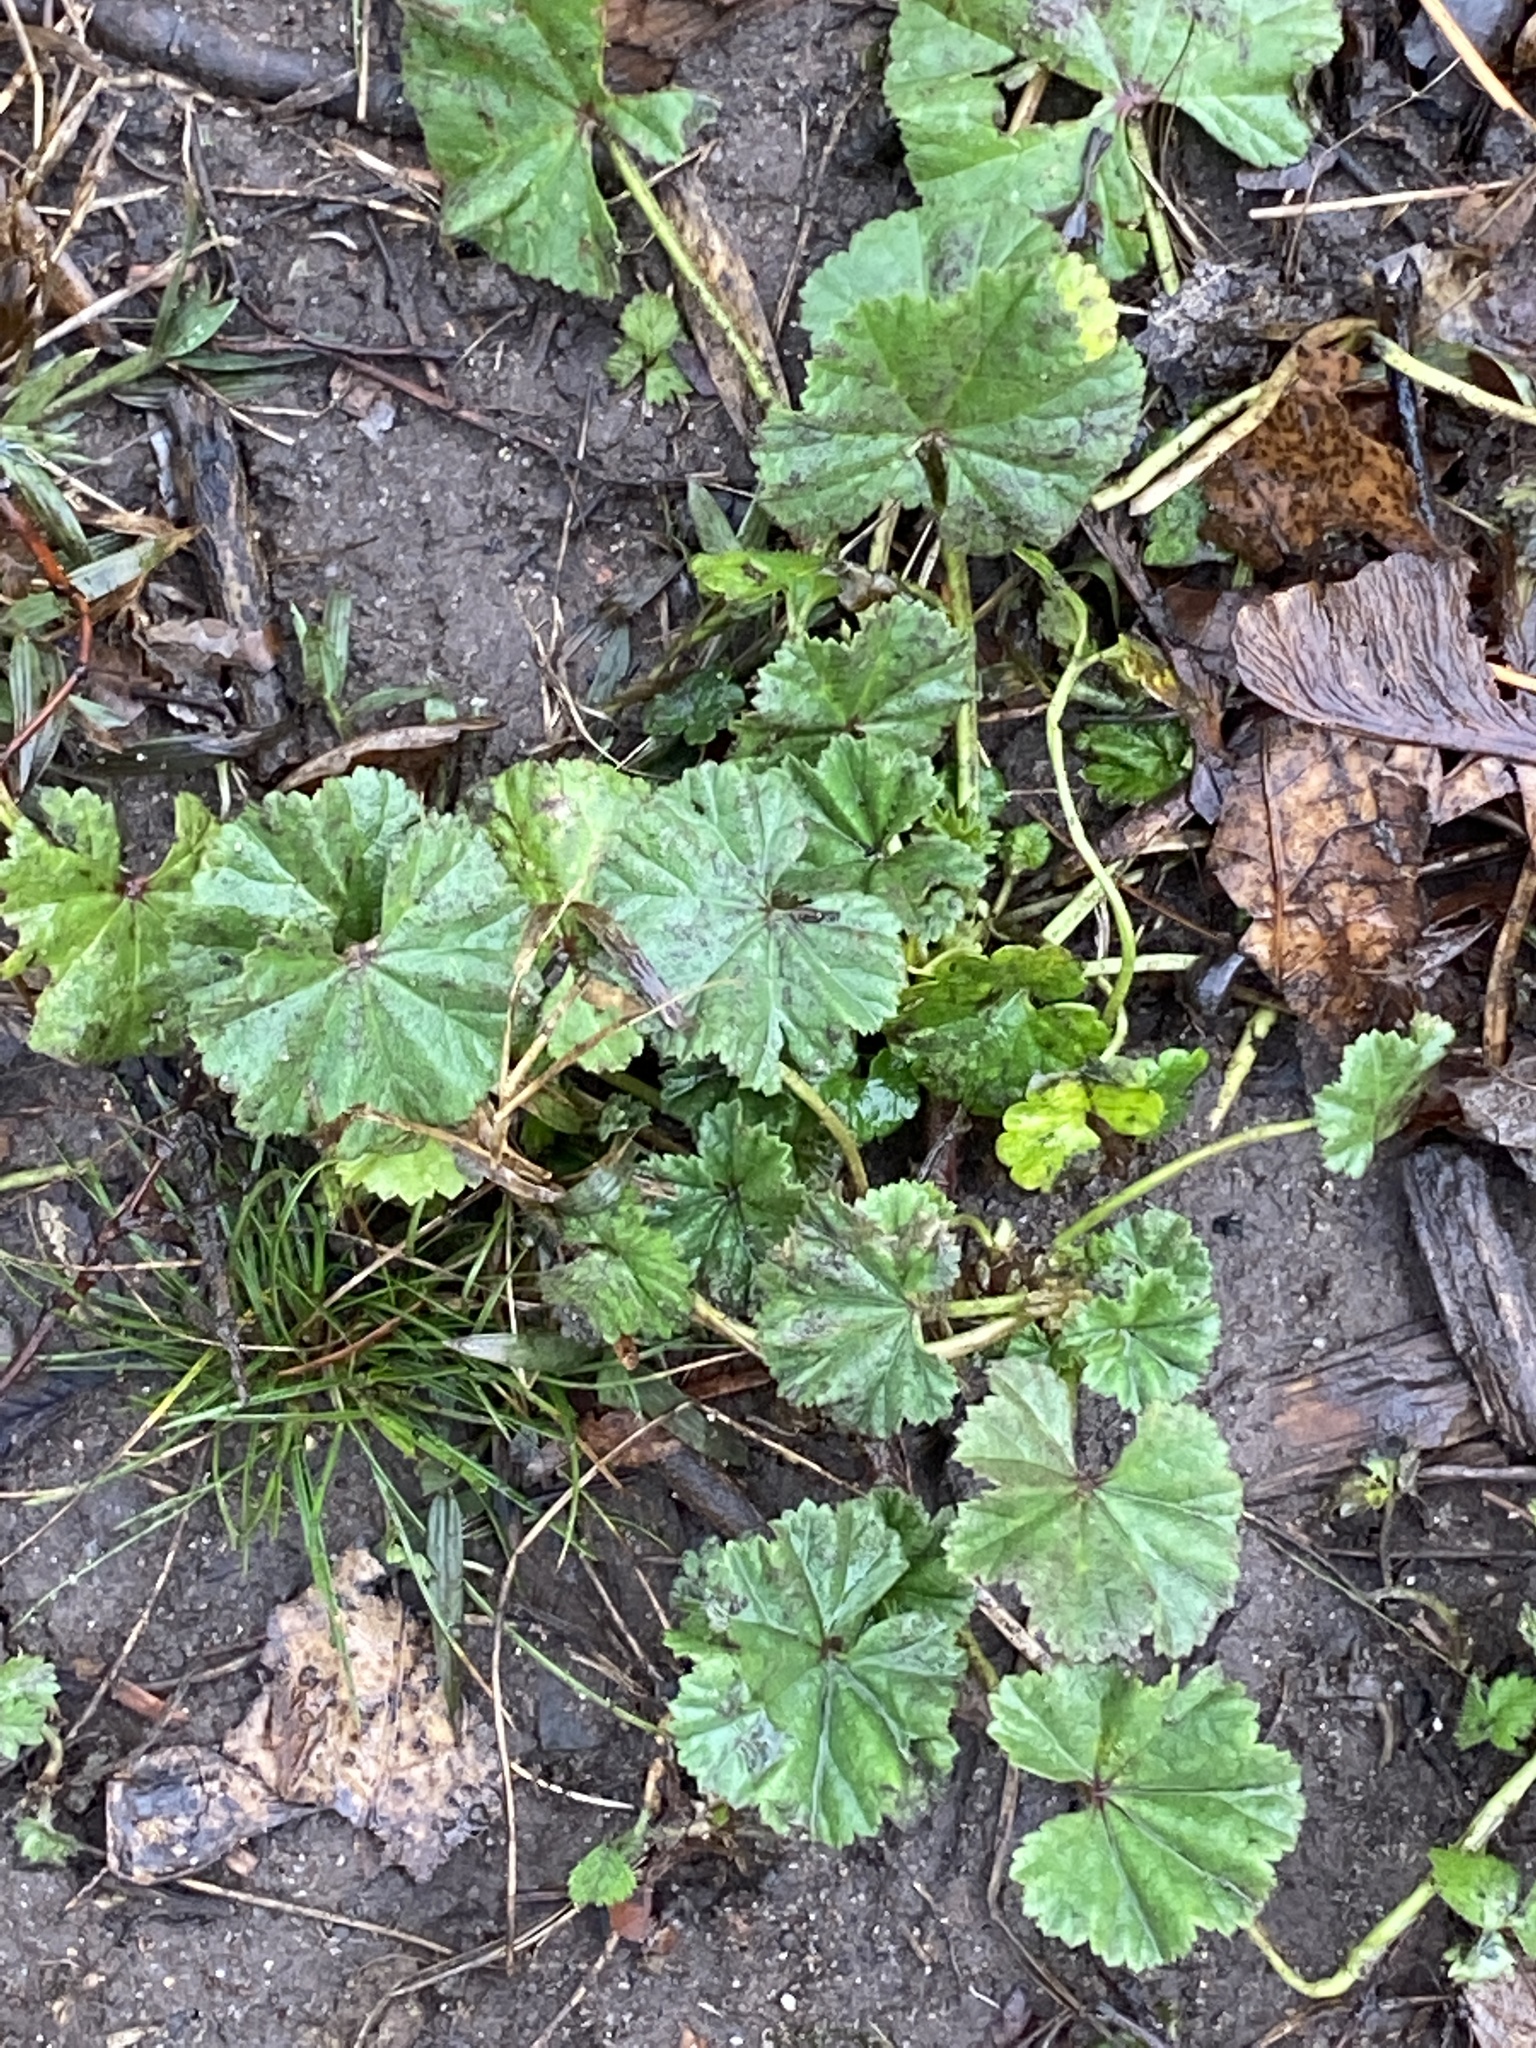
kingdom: Plantae
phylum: Tracheophyta
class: Magnoliopsida
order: Malvales
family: Malvaceae
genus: Malva
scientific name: Malva neglecta
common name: Common mallow
